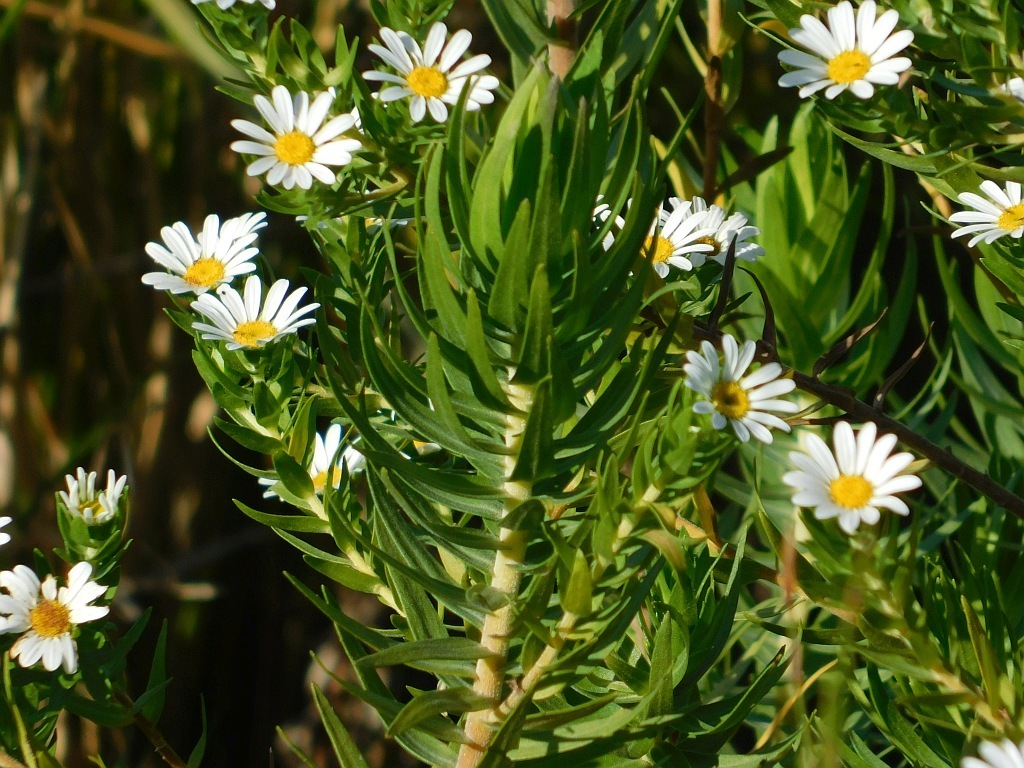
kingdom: Plantae
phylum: Tracheophyta
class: Magnoliopsida
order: Asterales
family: Asteraceae
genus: Osmitopsis
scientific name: Osmitopsis asteriscoides
